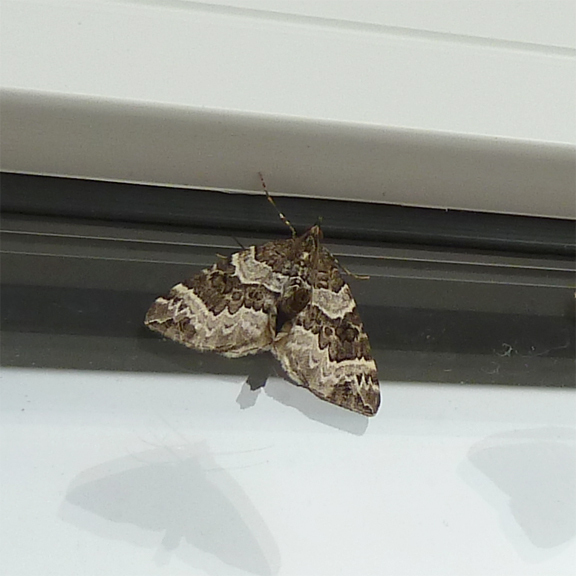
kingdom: Animalia
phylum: Arthropoda
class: Insecta
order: Lepidoptera
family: Geometridae
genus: Eulithis
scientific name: Eulithis explanata
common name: White eulithis
